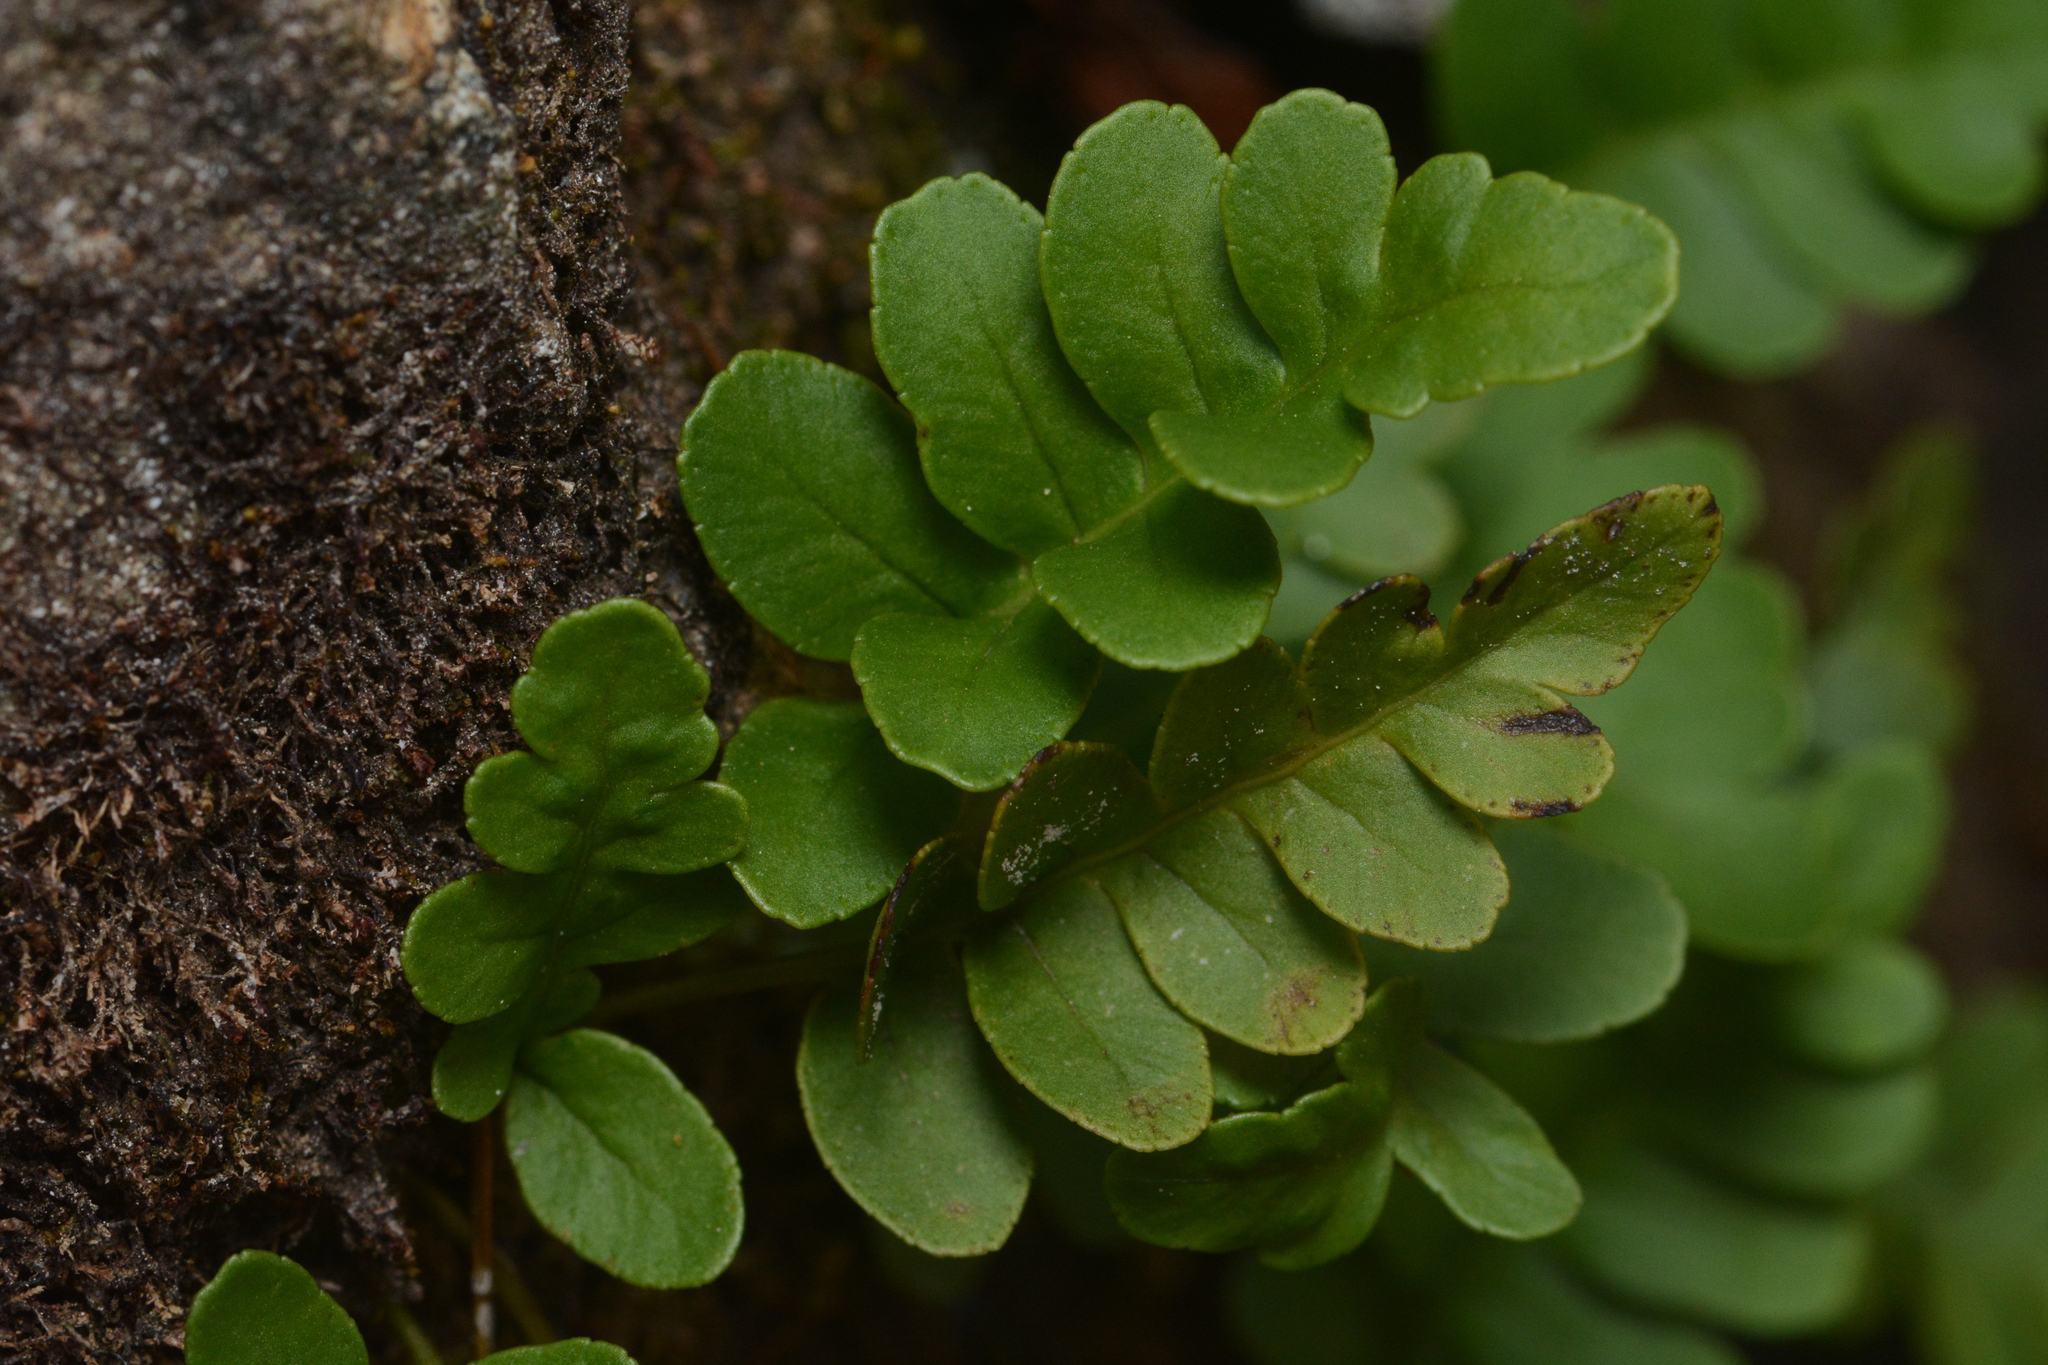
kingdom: Plantae
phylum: Tracheophyta
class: Polypodiopsida
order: Polypodiales
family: Polypodiaceae
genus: Polypodium
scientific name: Polypodium amorphum
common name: Pacific polypody
